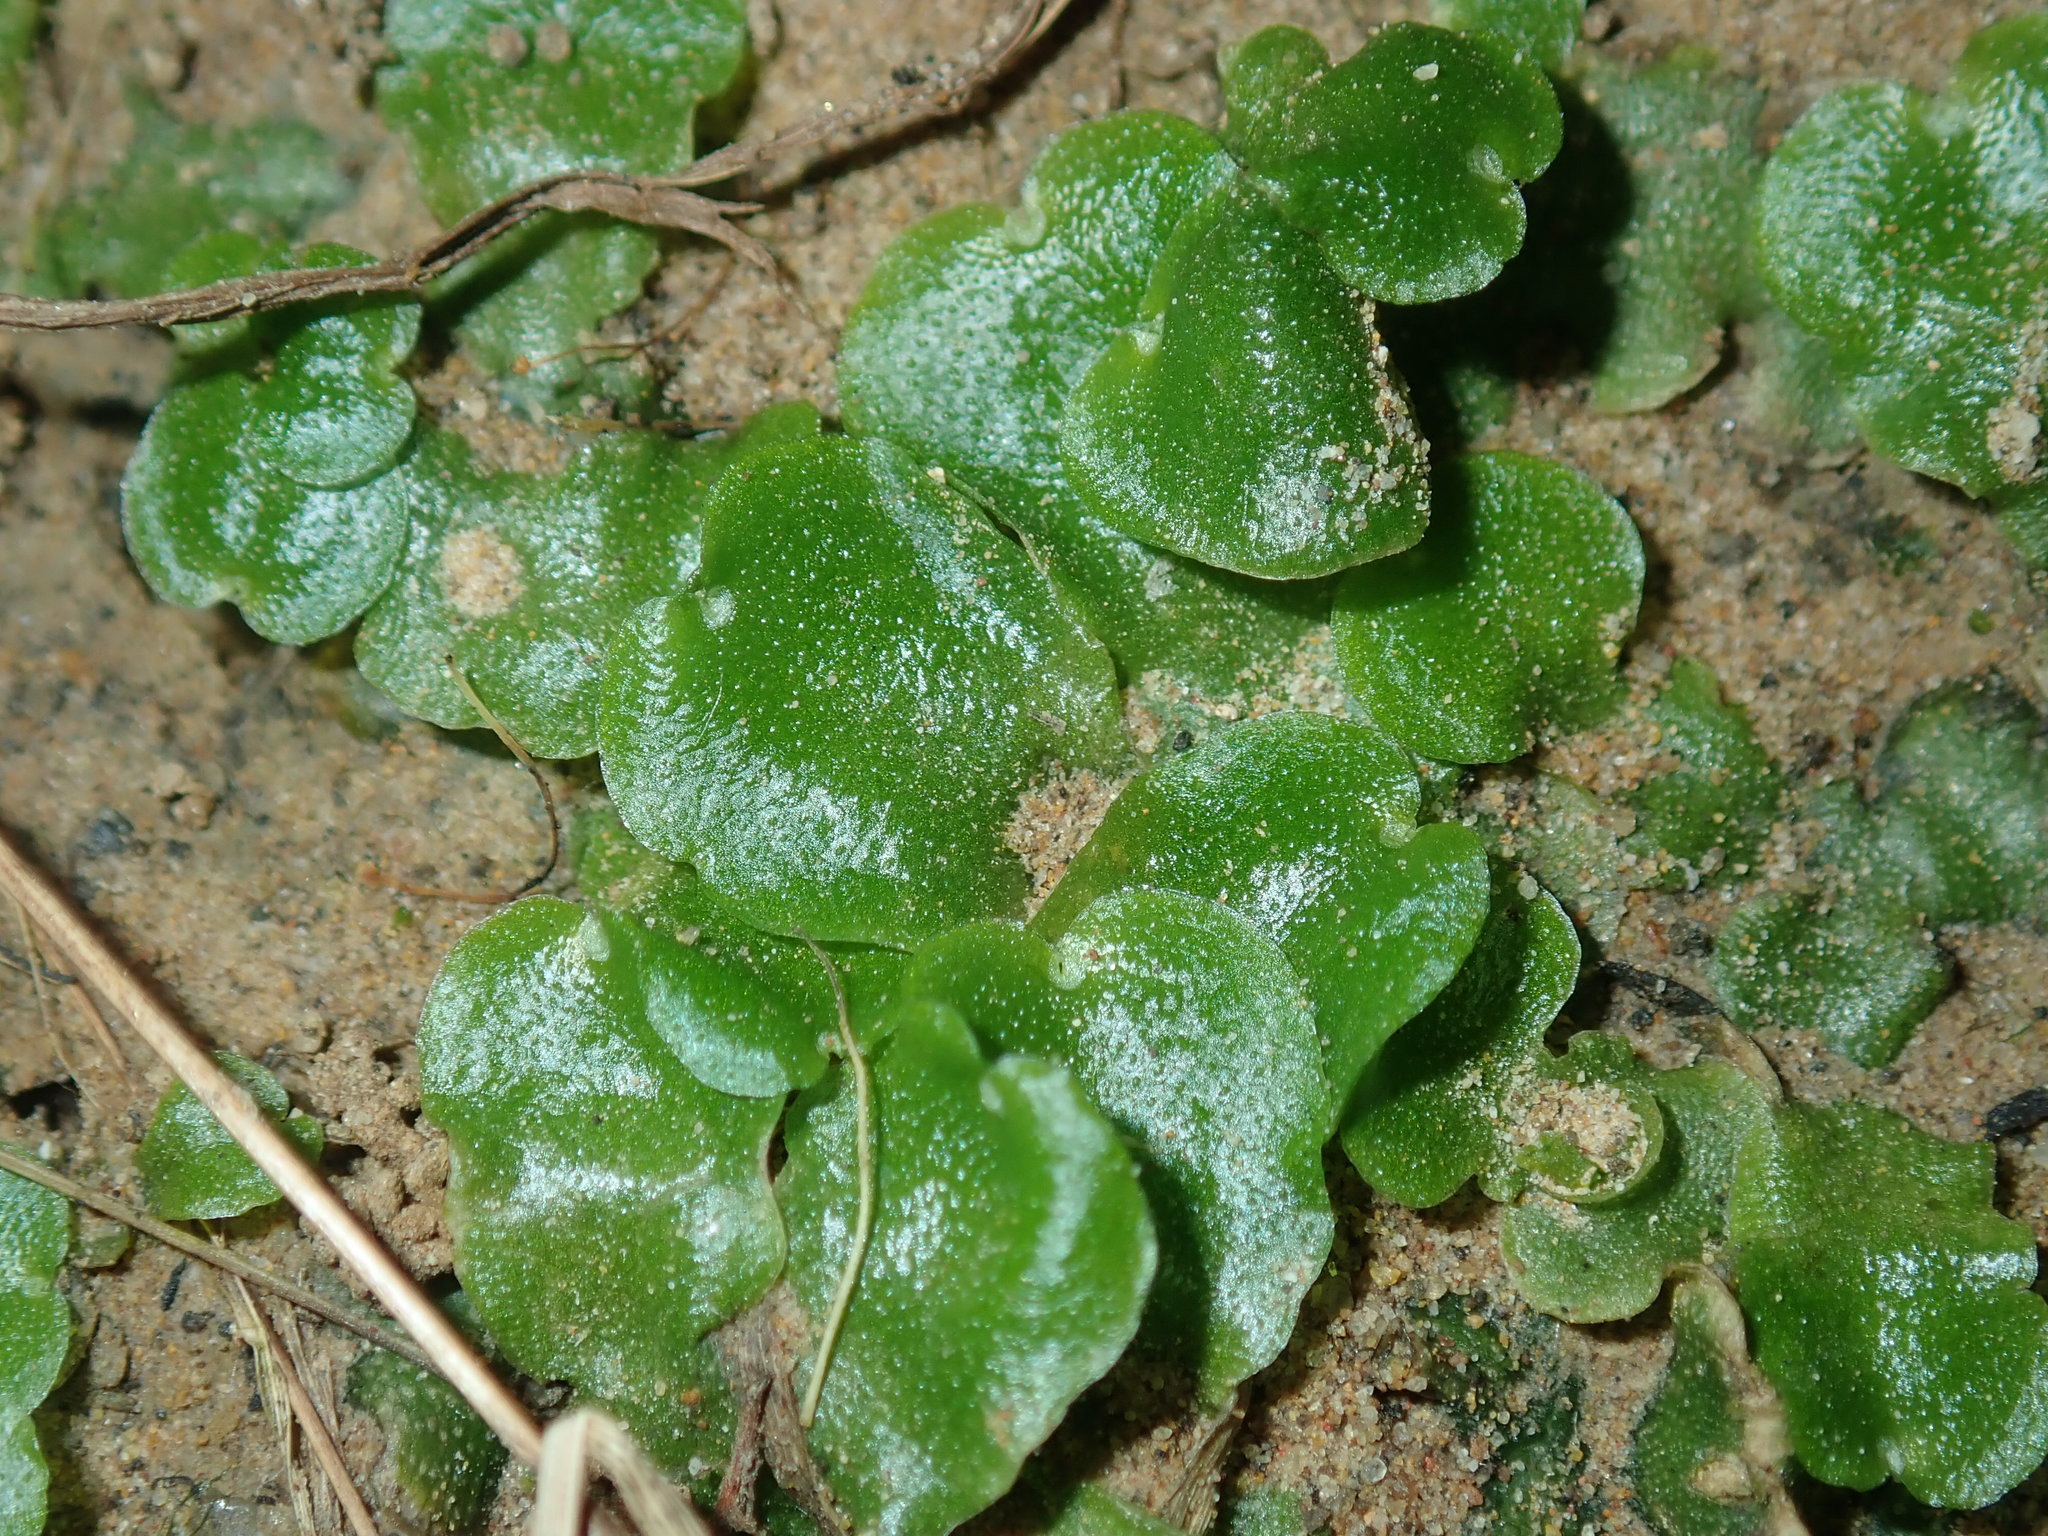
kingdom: Plantae
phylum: Marchantiophyta
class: Marchantiopsida
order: Lunulariales
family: Lunulariaceae
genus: Lunularia
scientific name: Lunularia cruciata
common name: Crescent-cup liverwort
